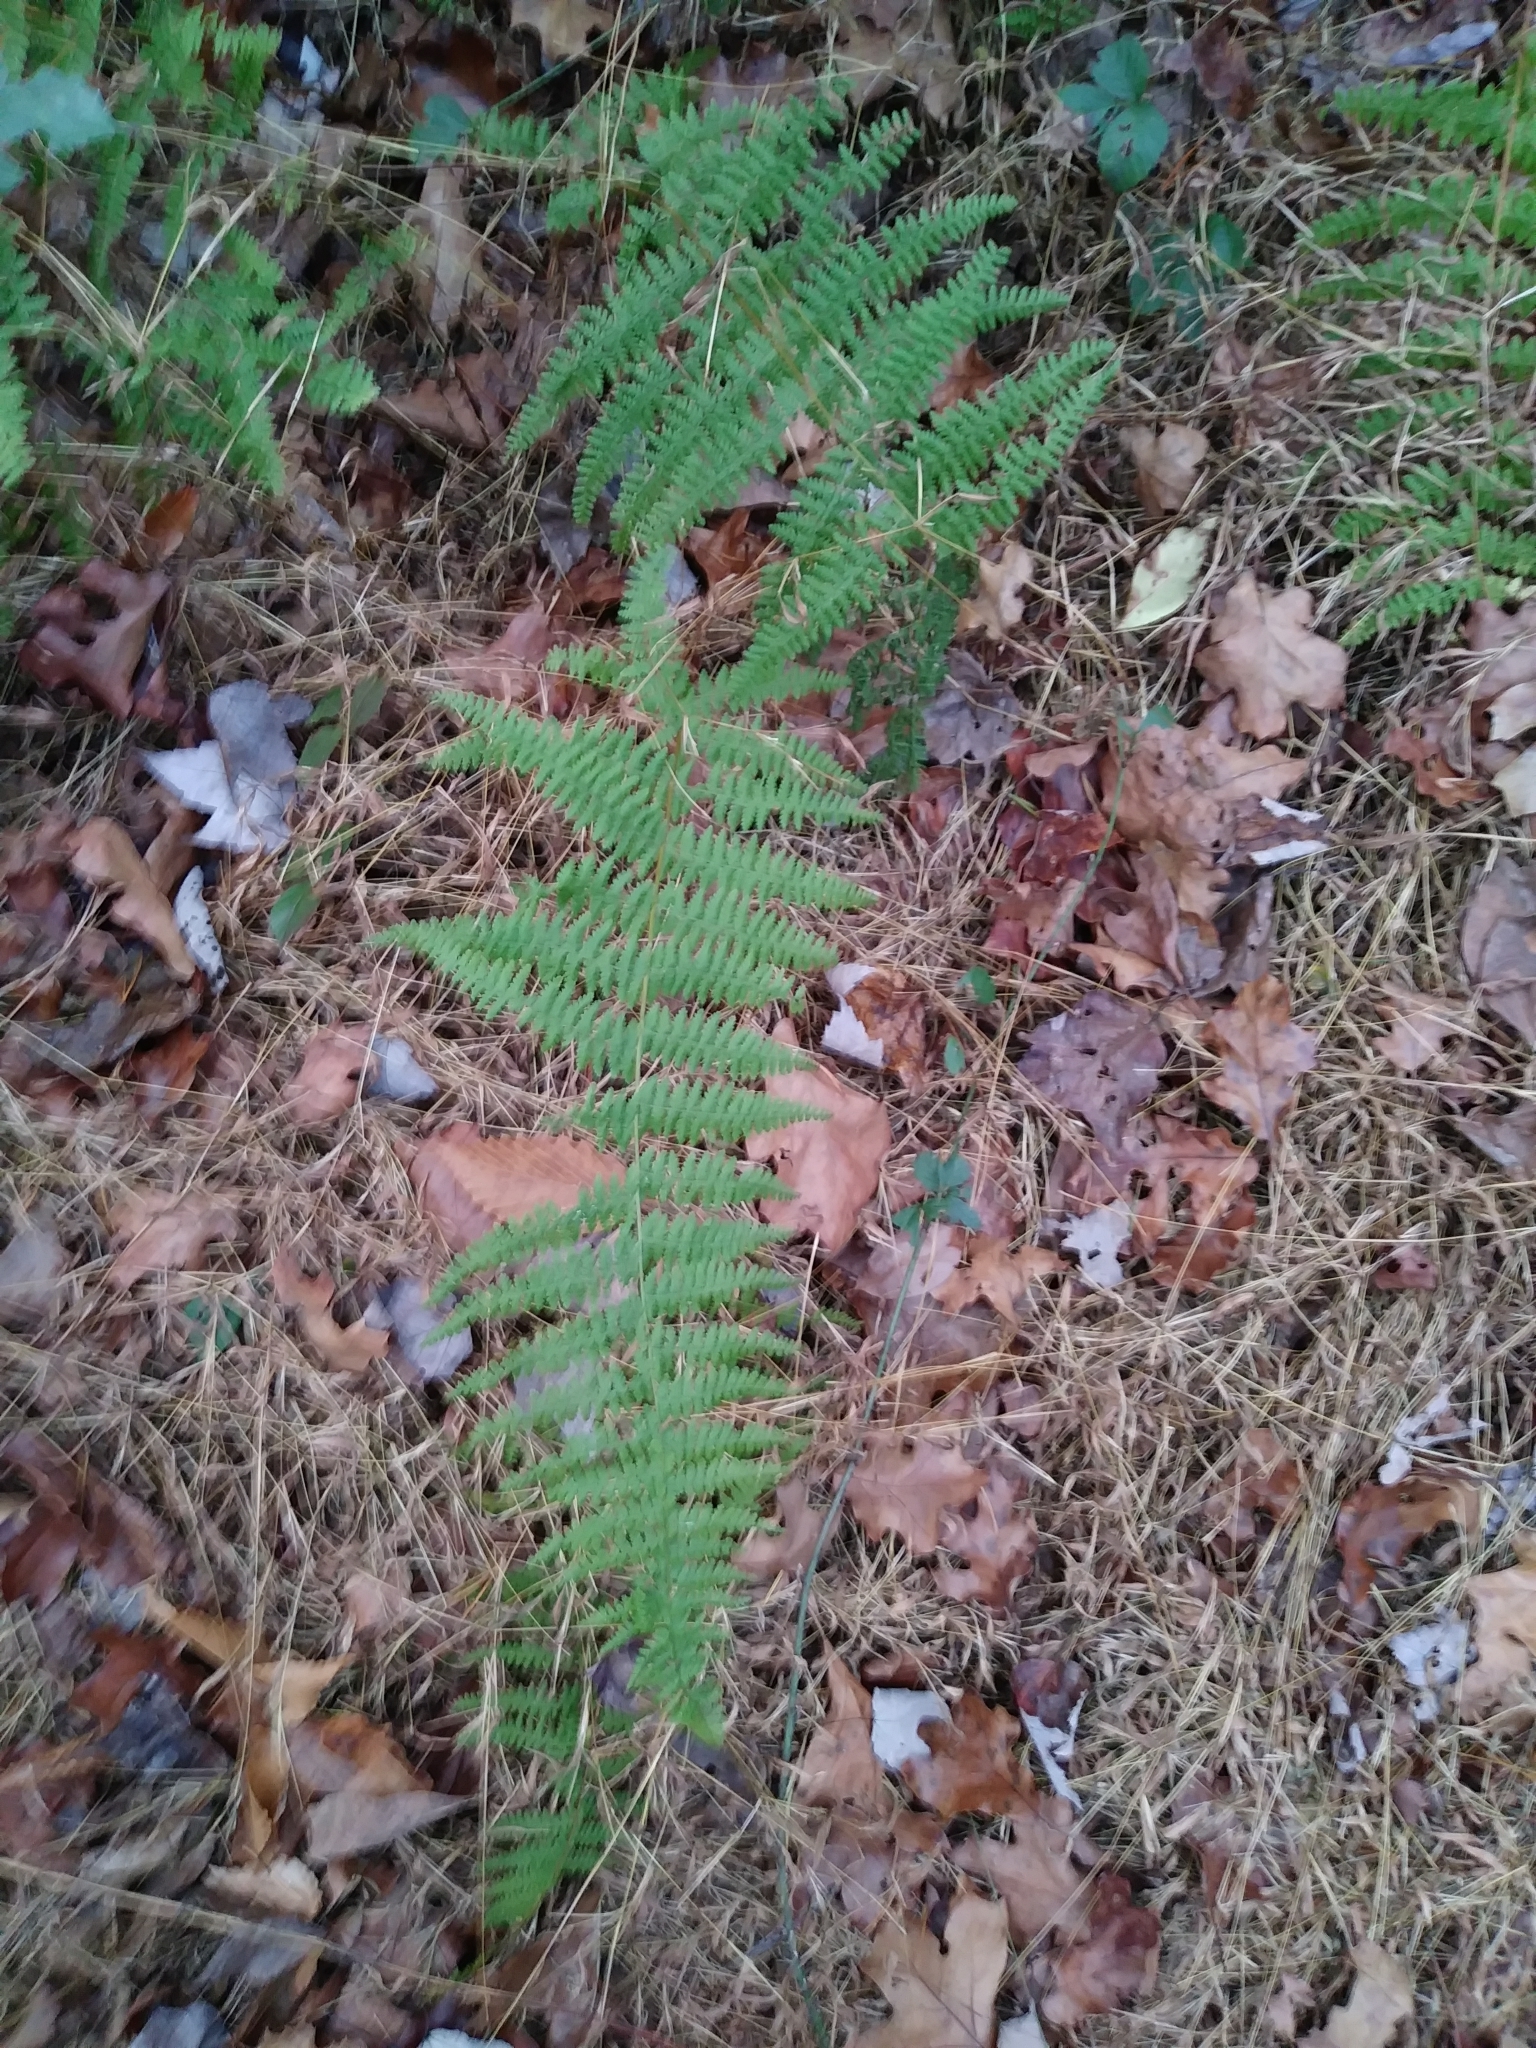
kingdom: Plantae
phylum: Tracheophyta
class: Polypodiopsida
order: Polypodiales
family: Dennstaedtiaceae
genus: Sitobolium
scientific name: Sitobolium punctilobum
